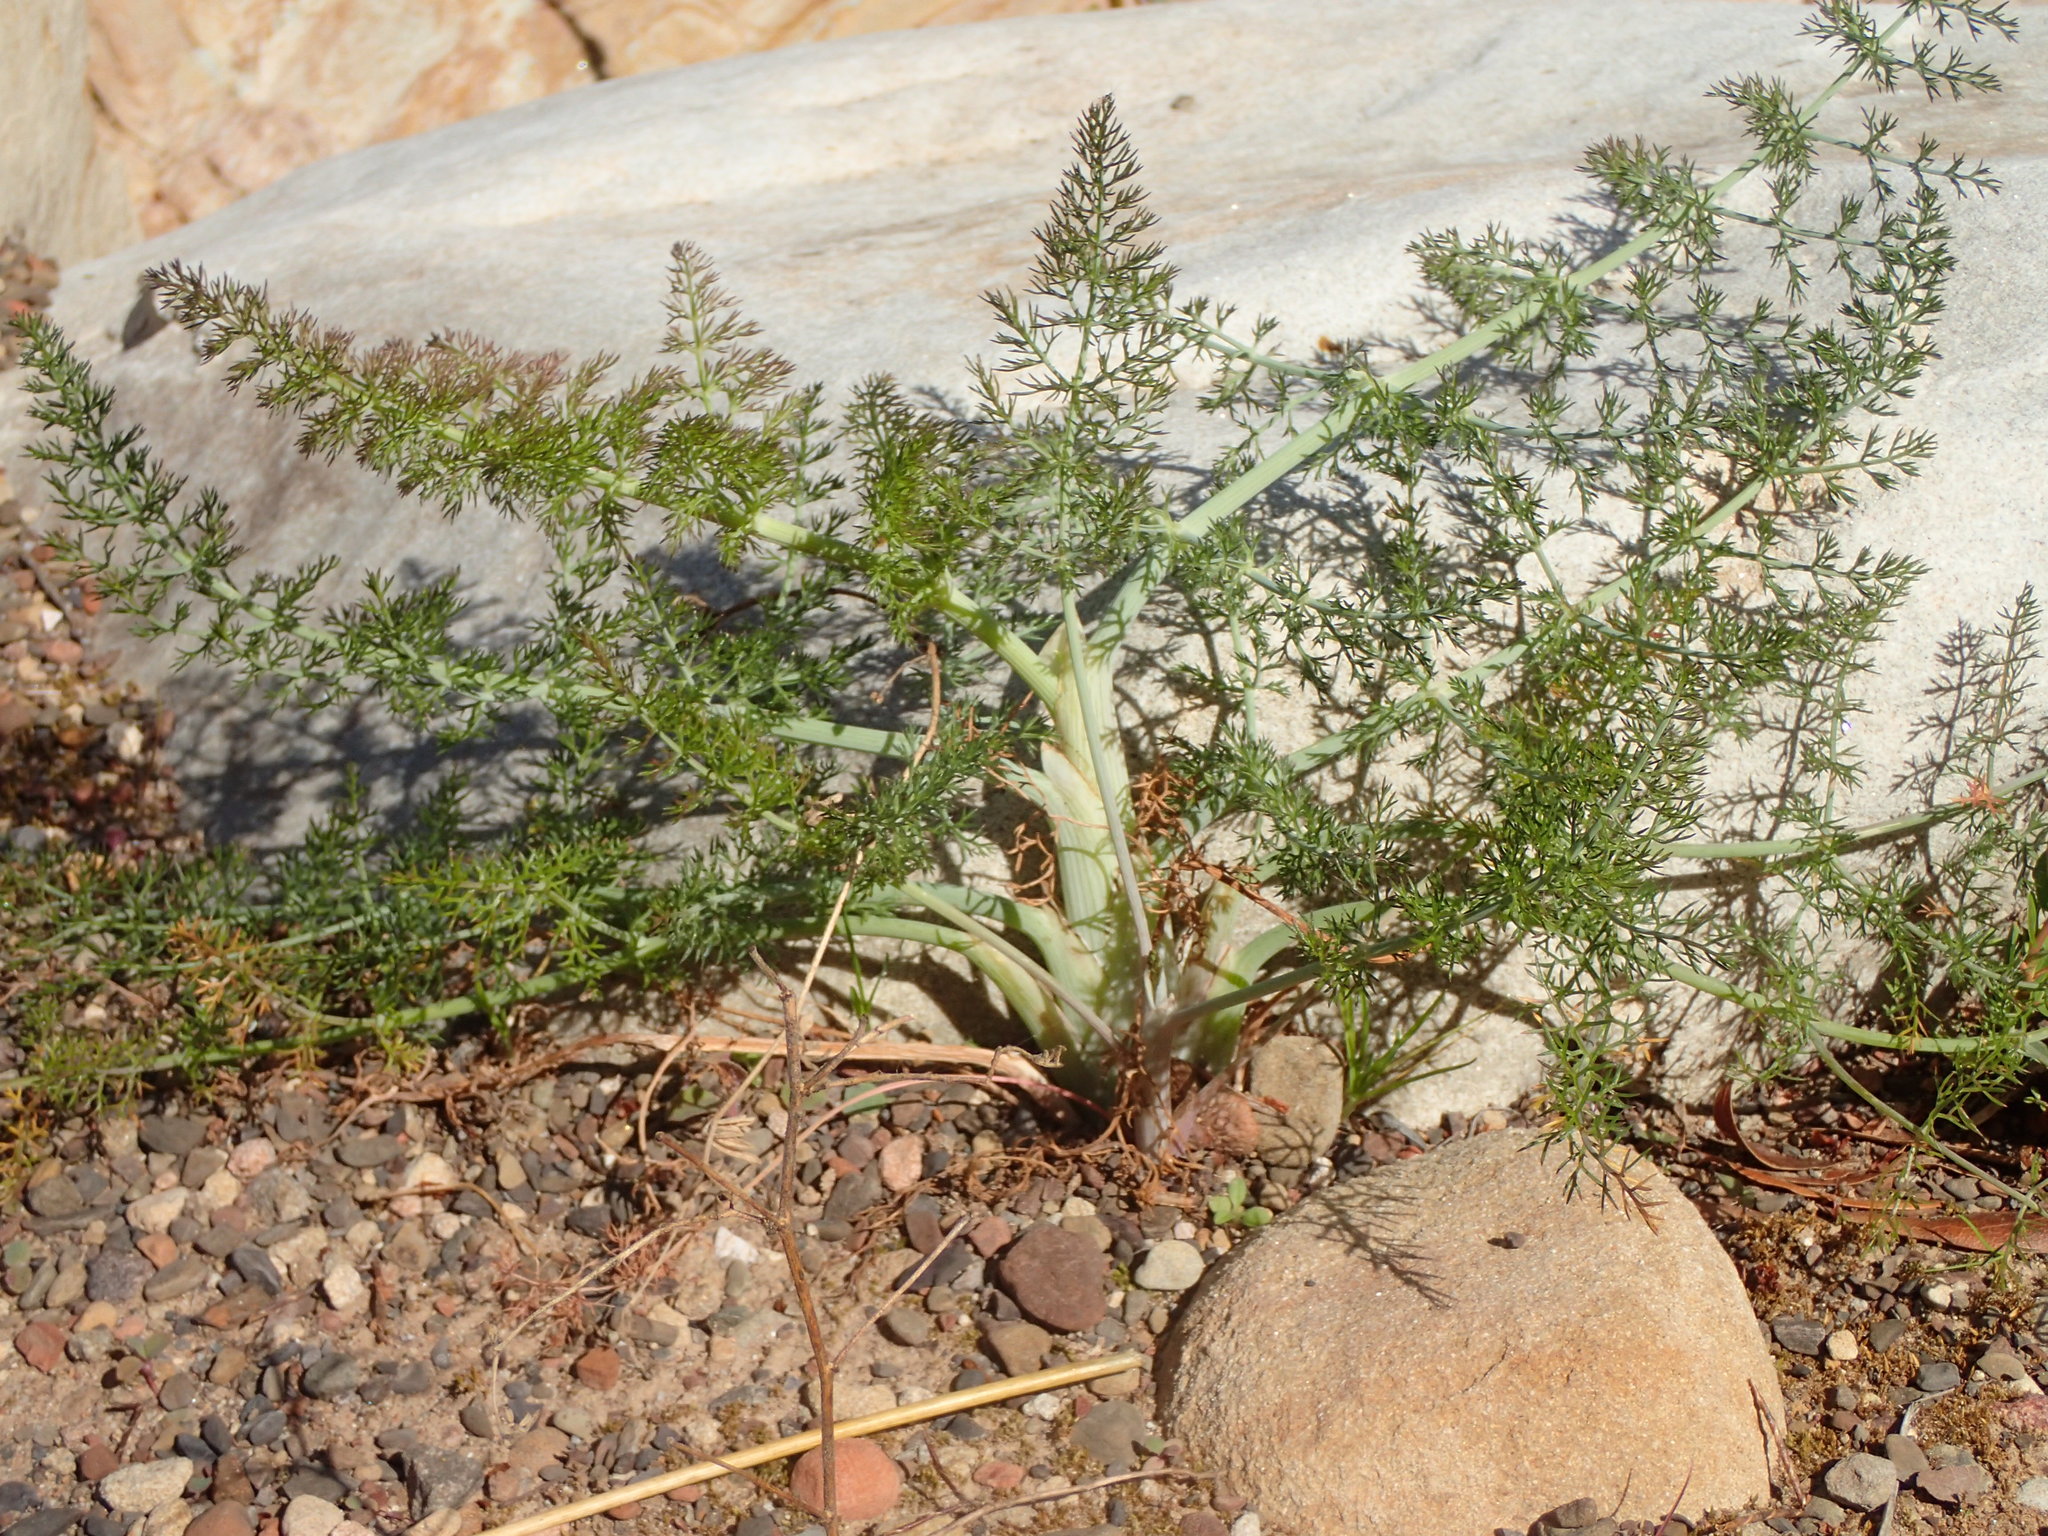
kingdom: Plantae
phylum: Tracheophyta
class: Magnoliopsida
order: Apiales
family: Apiaceae
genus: Foeniculum
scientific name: Foeniculum vulgare
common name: Fennel
